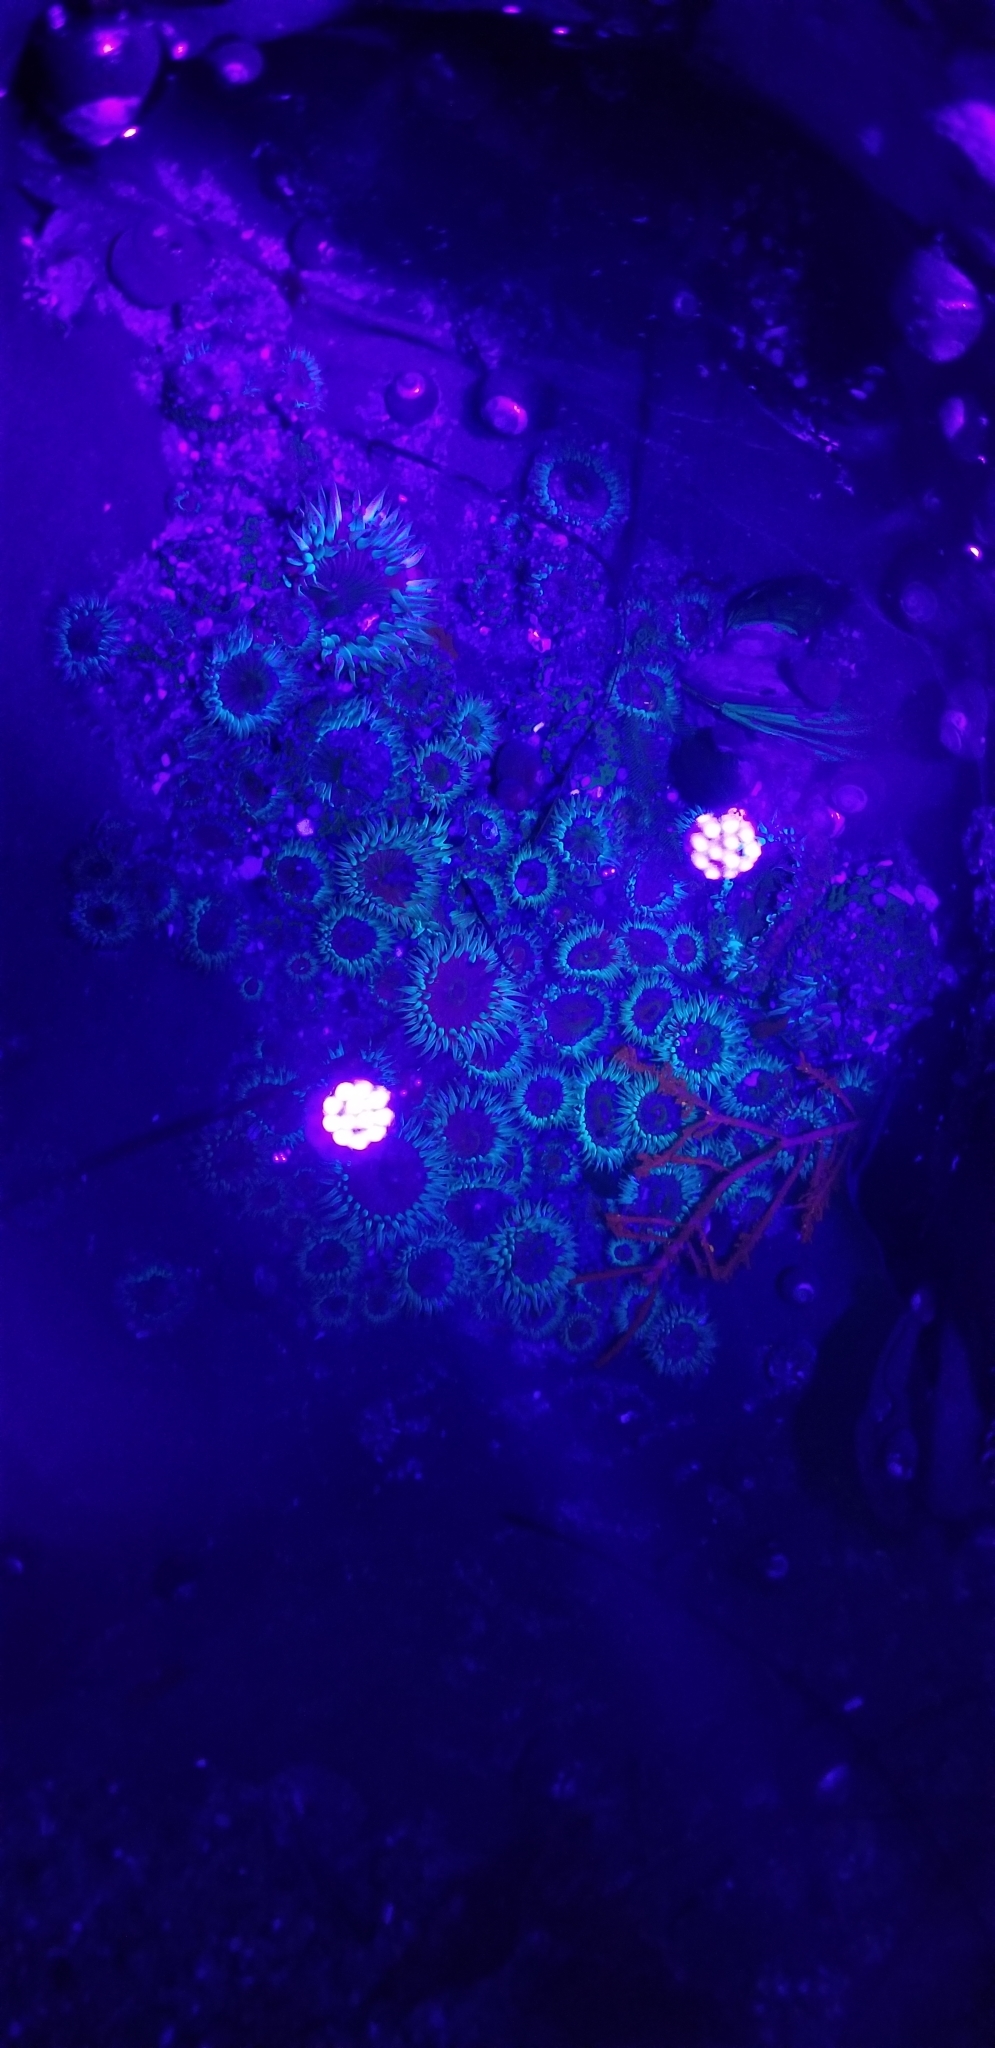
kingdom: Animalia
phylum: Cnidaria
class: Anthozoa
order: Actiniaria
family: Actiniidae
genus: Anthopleura
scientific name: Anthopleura elegantissima
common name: Clonal anemone
